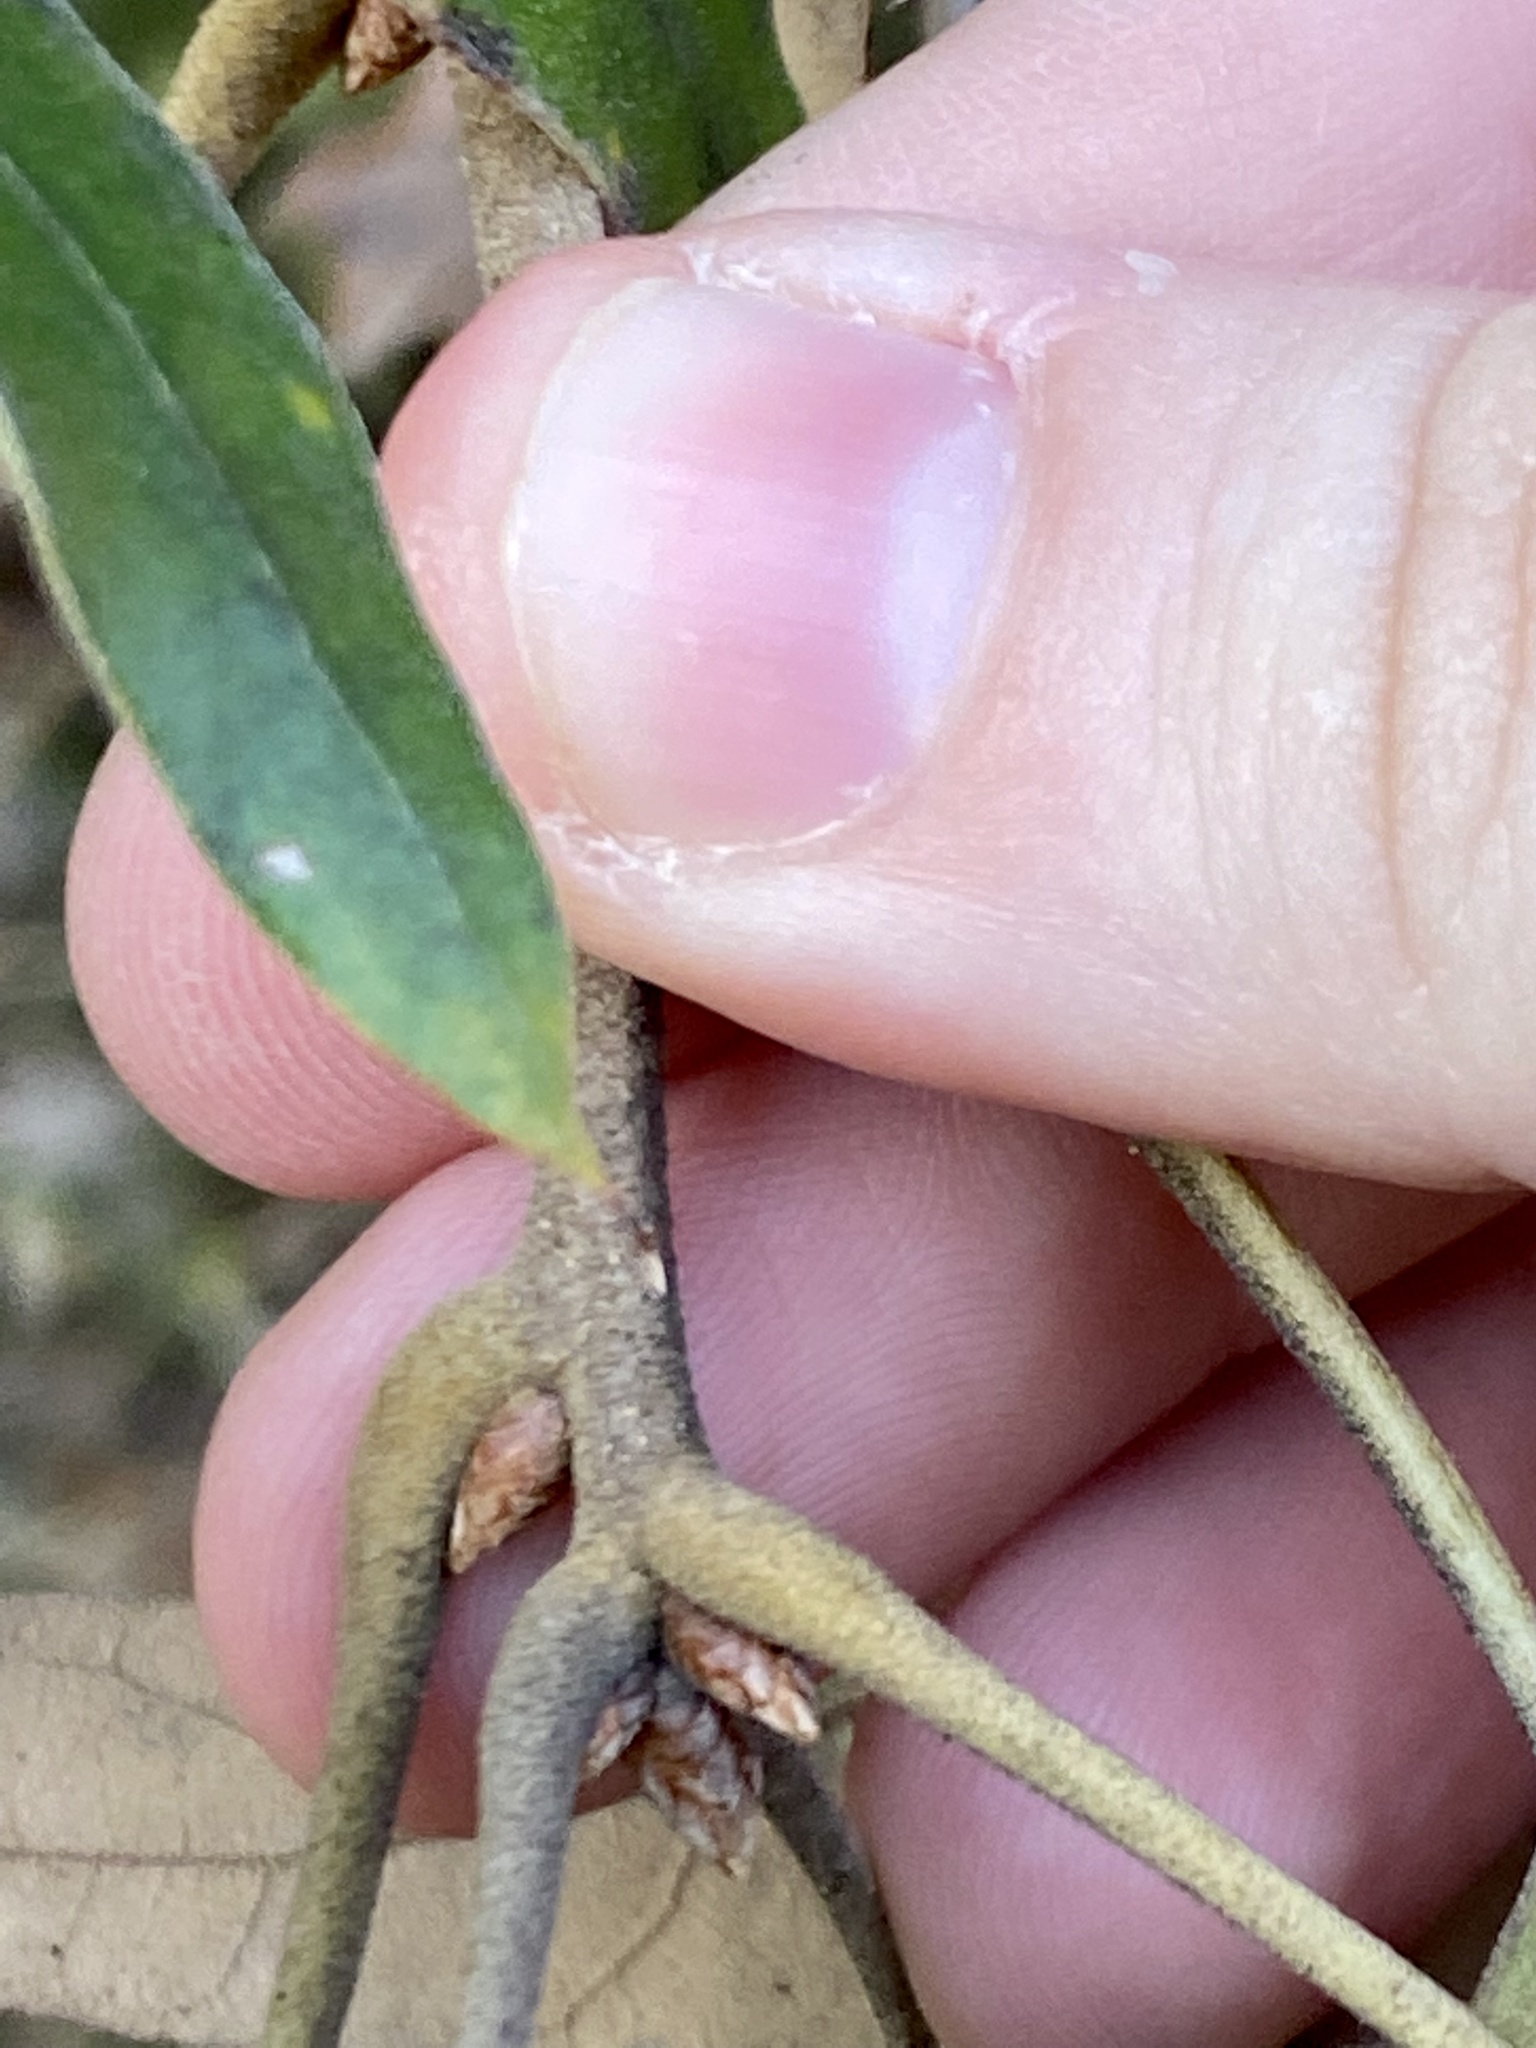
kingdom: Plantae
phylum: Tracheophyta
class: Magnoliopsida
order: Fagales
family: Fagaceae
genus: Quercus
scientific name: Quercus falcata
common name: Southern red oak
